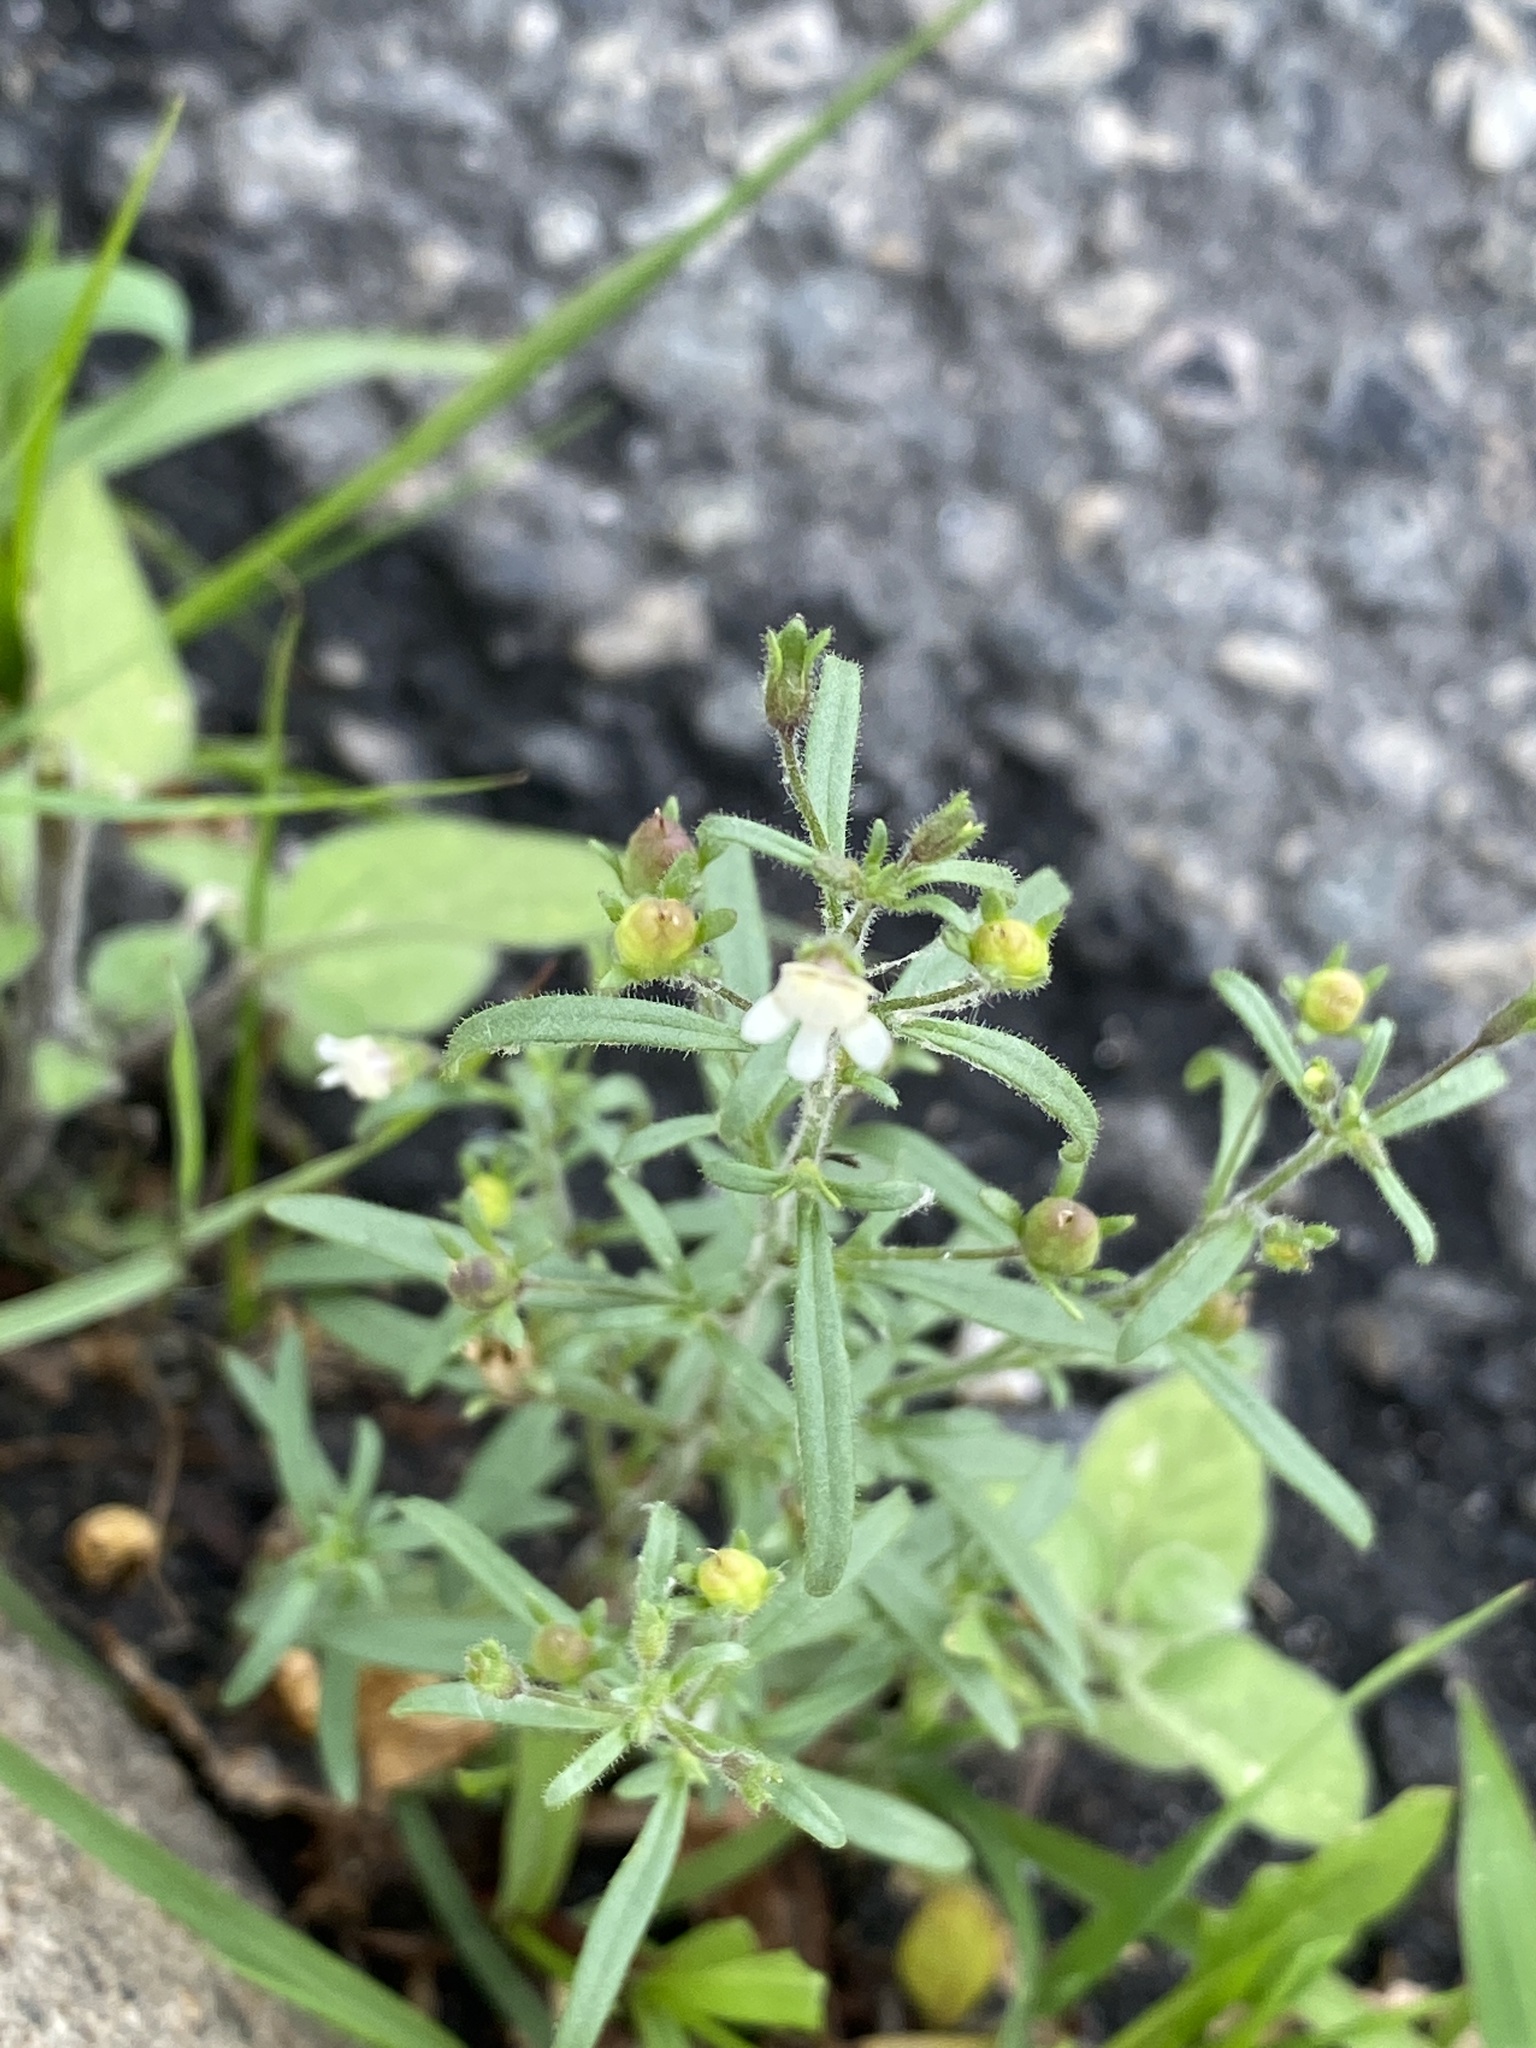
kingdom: Plantae
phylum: Tracheophyta
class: Magnoliopsida
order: Lamiales
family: Plantaginaceae
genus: Chaenorhinum
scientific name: Chaenorhinum minus
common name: Dwarf snapdragon
